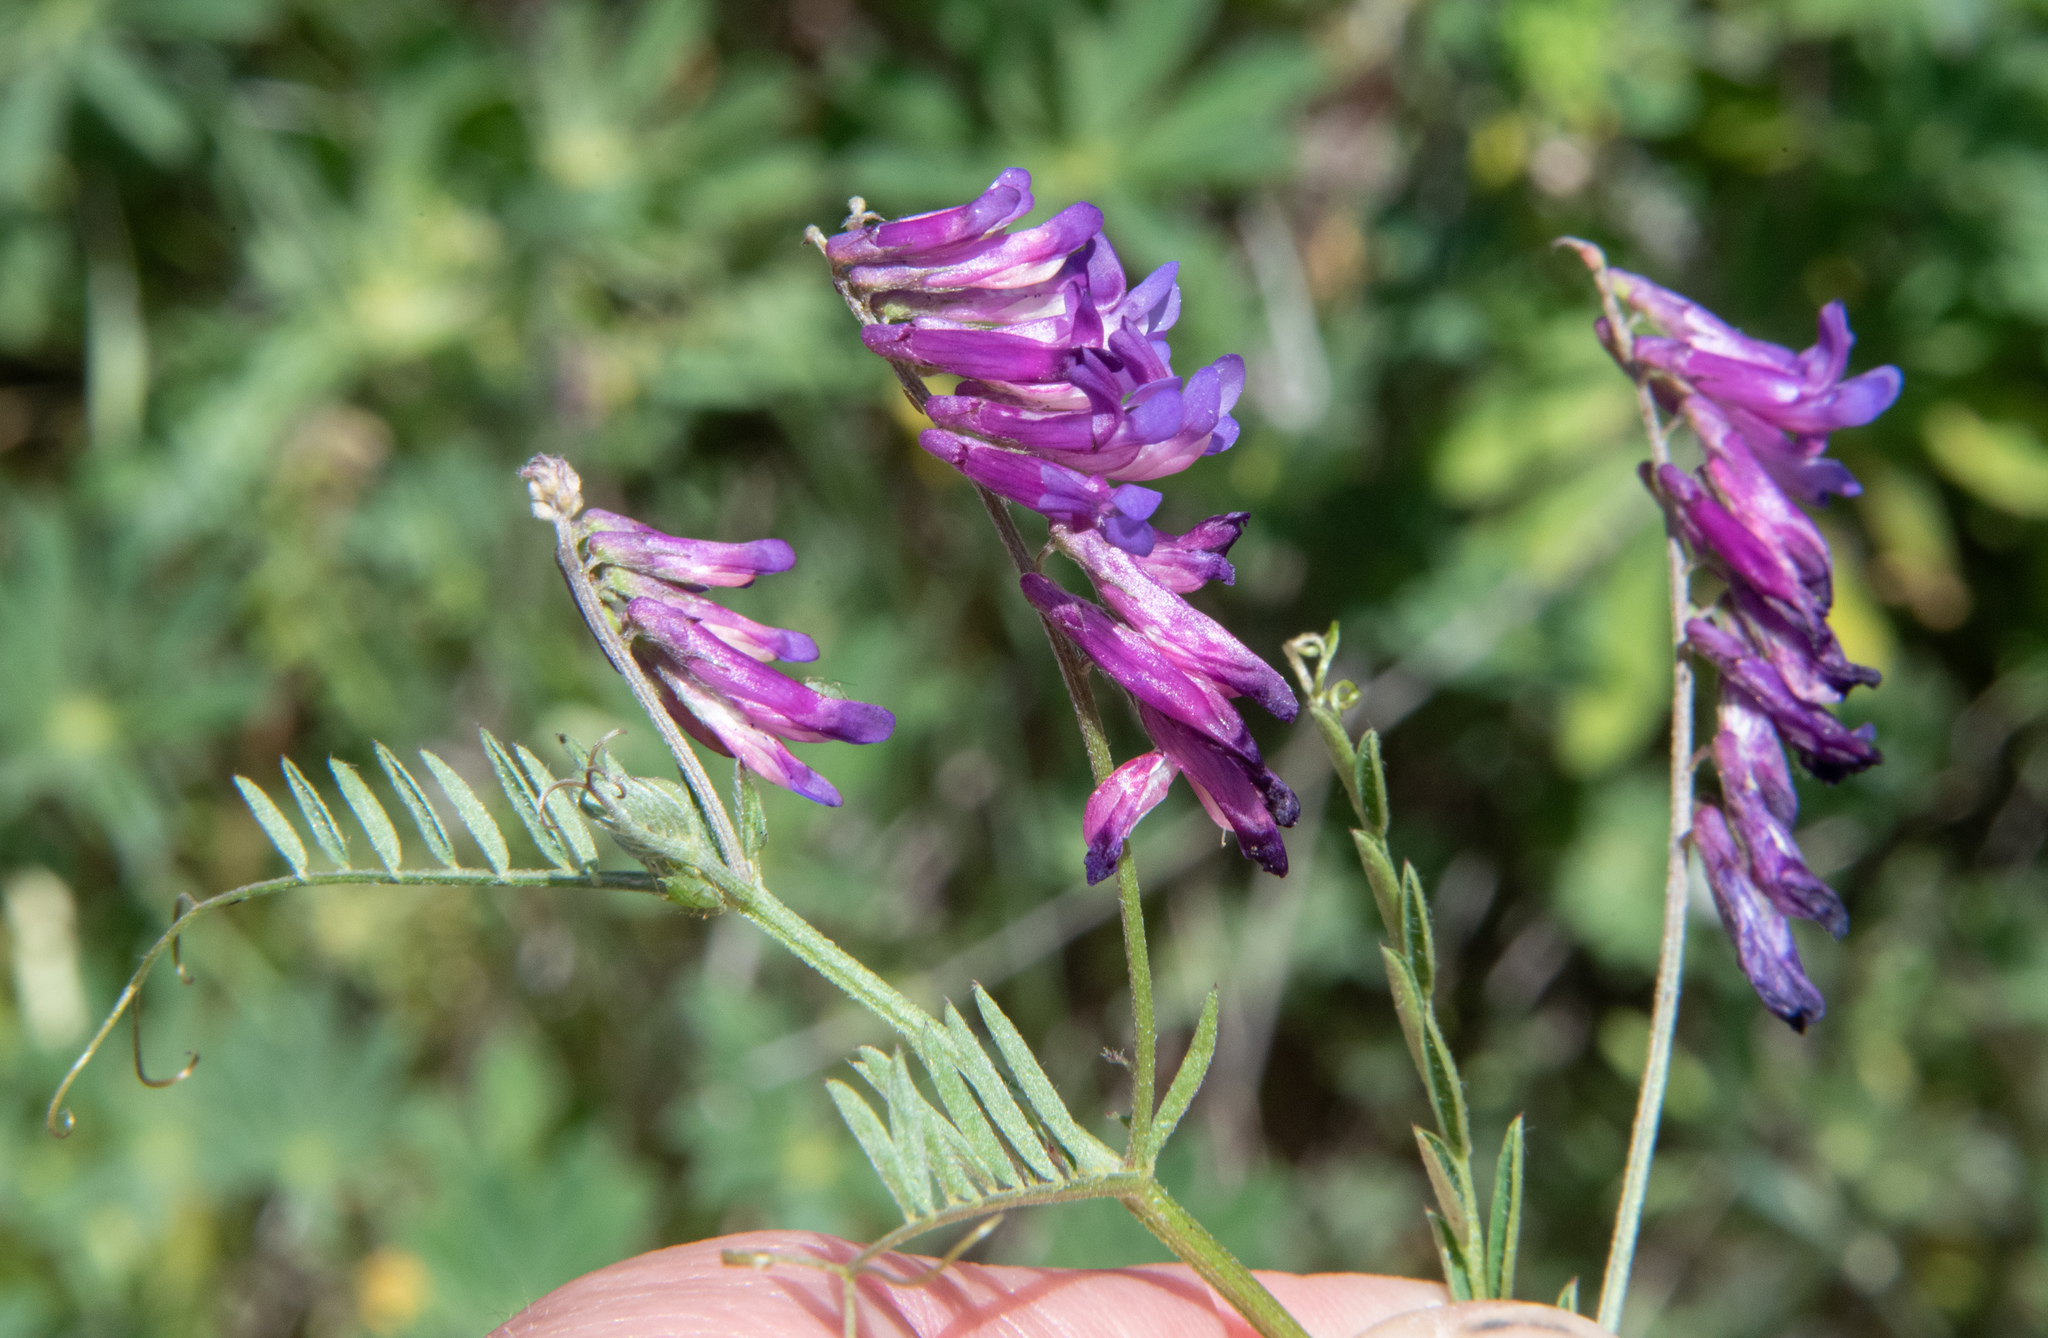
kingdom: Plantae
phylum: Tracheophyta
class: Magnoliopsida
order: Fabales
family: Fabaceae
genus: Vicia
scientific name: Vicia villosa
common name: Fodder vetch
